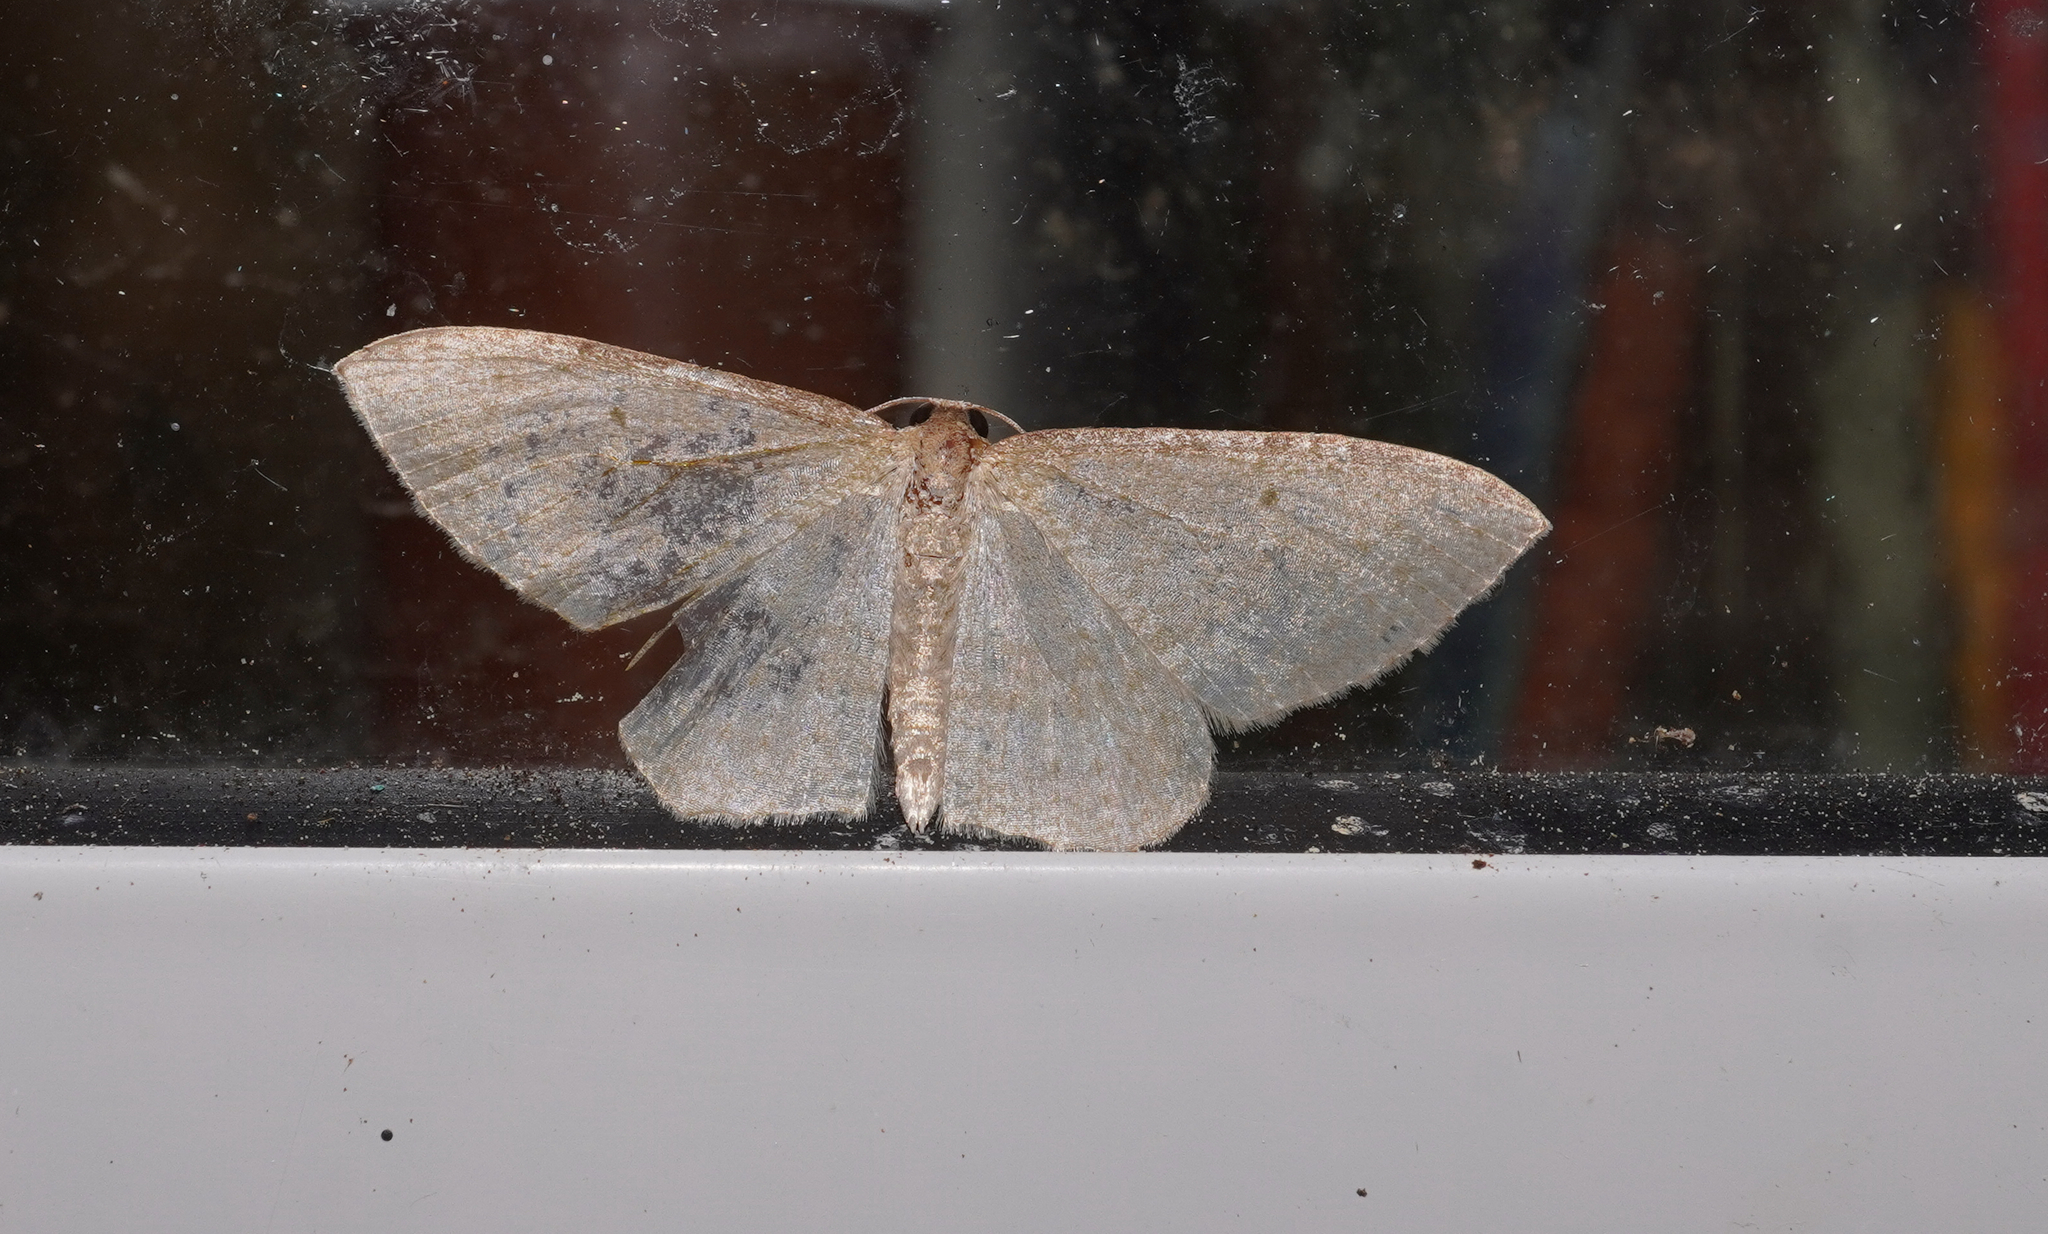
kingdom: Animalia
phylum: Arthropoda
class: Insecta
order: Lepidoptera
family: Geometridae
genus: Poecilasthena
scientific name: Poecilasthena pulchraria
